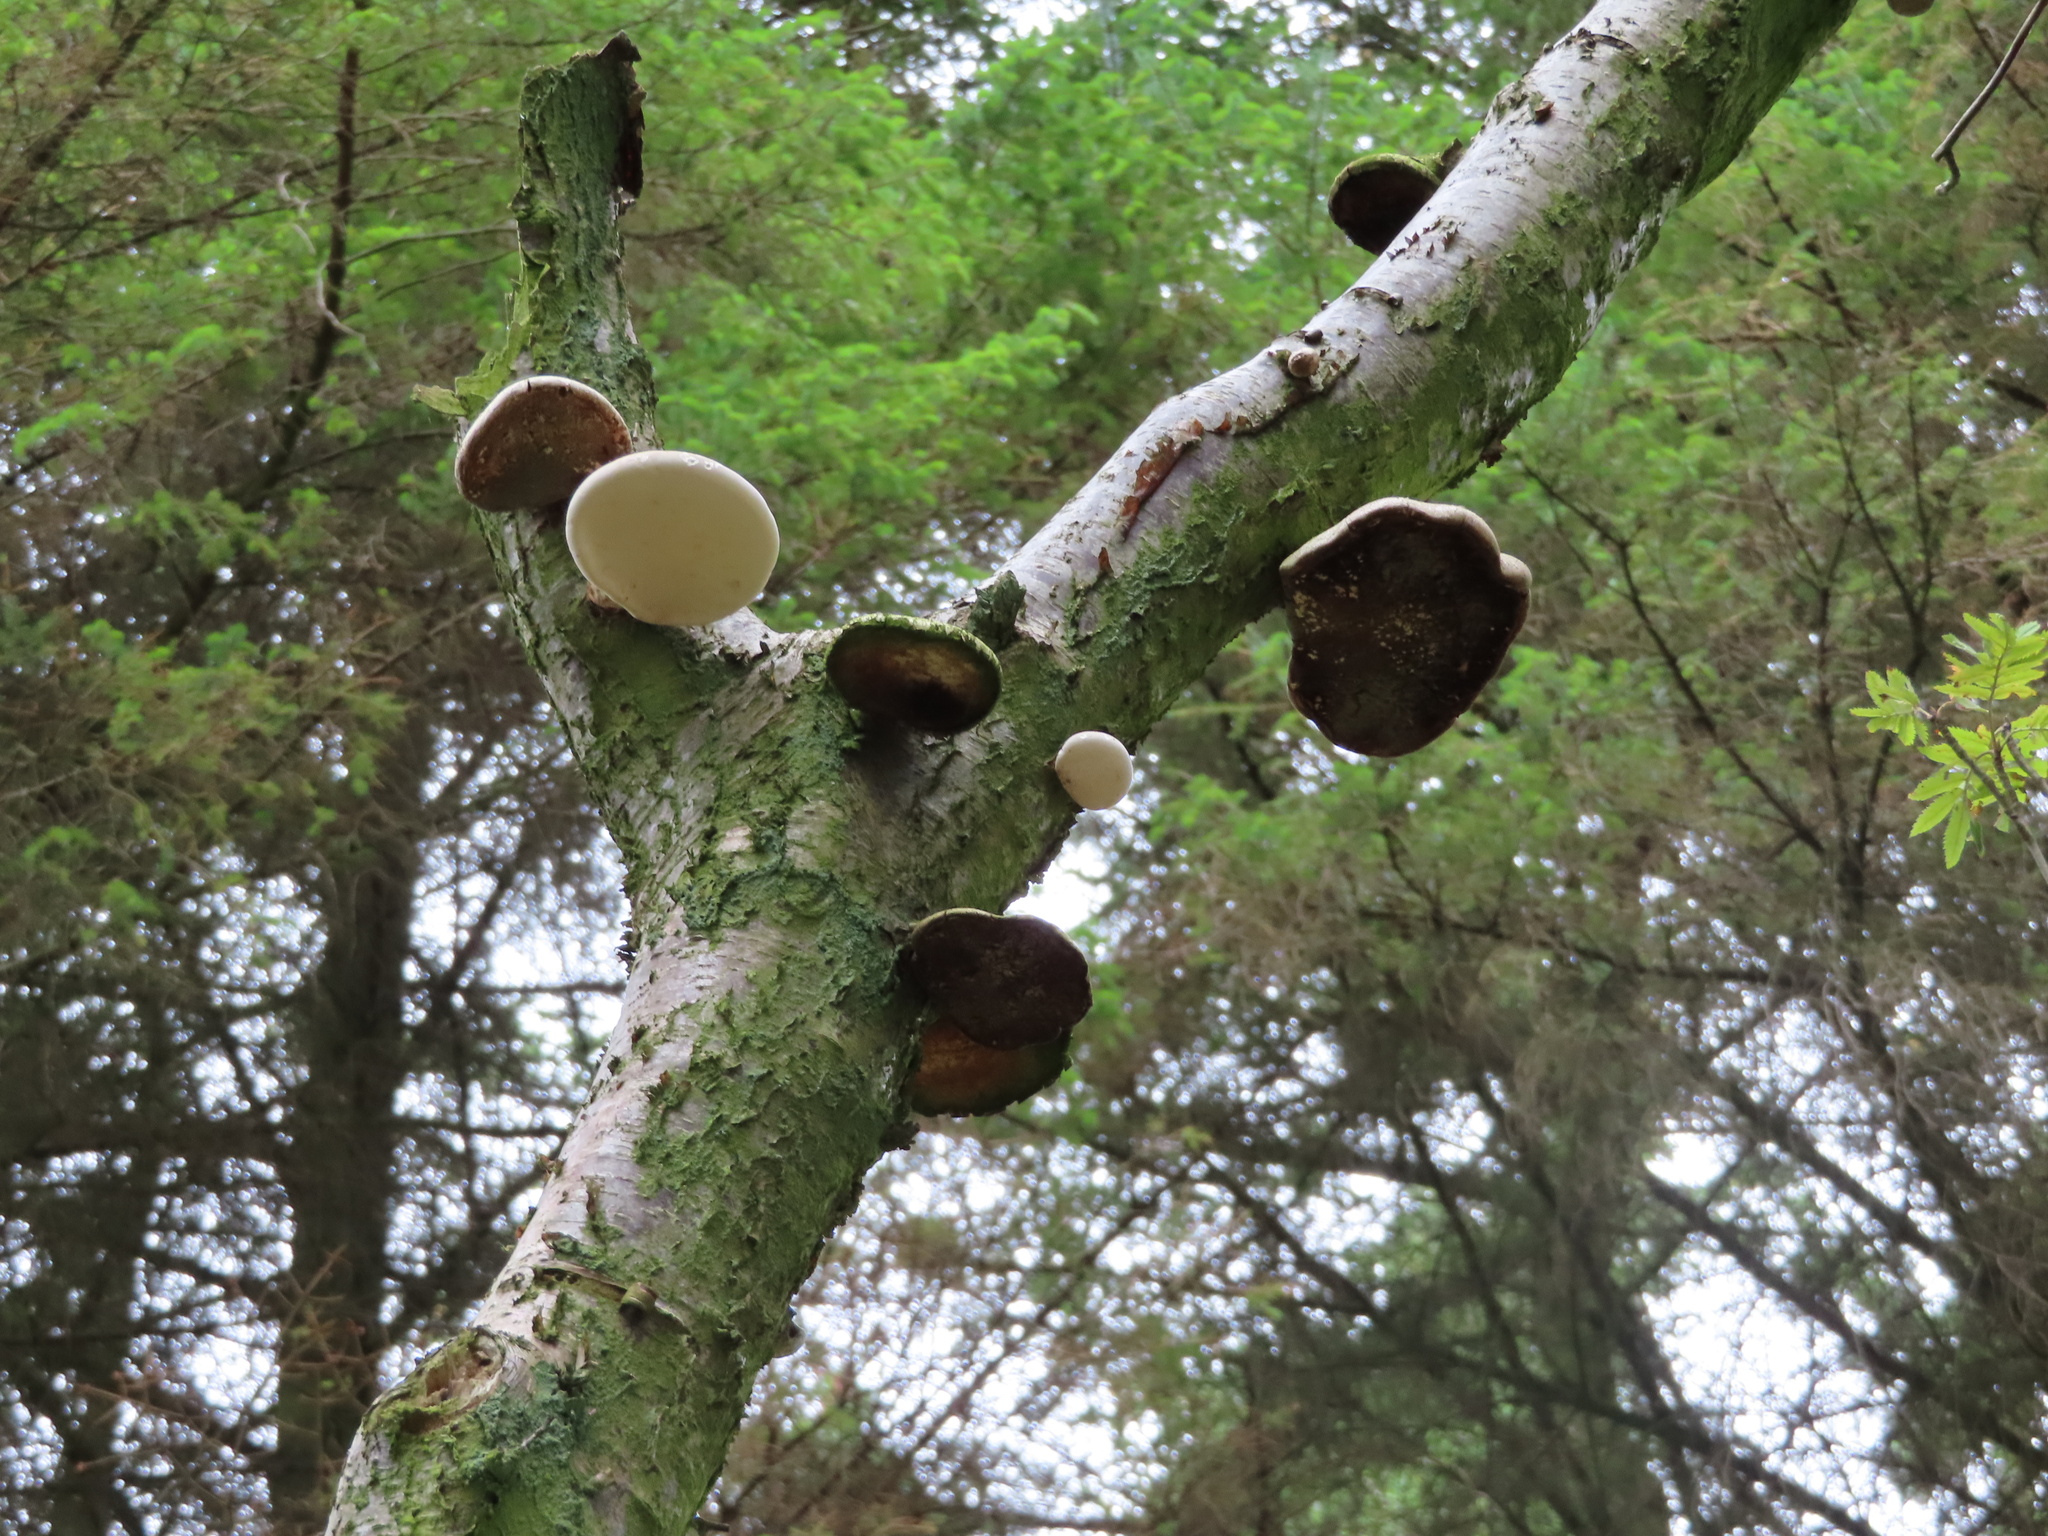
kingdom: Fungi
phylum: Basidiomycota
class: Agaricomycetes
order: Polyporales
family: Fomitopsidaceae
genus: Fomitopsis
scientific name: Fomitopsis betulina
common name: Birch polypore
